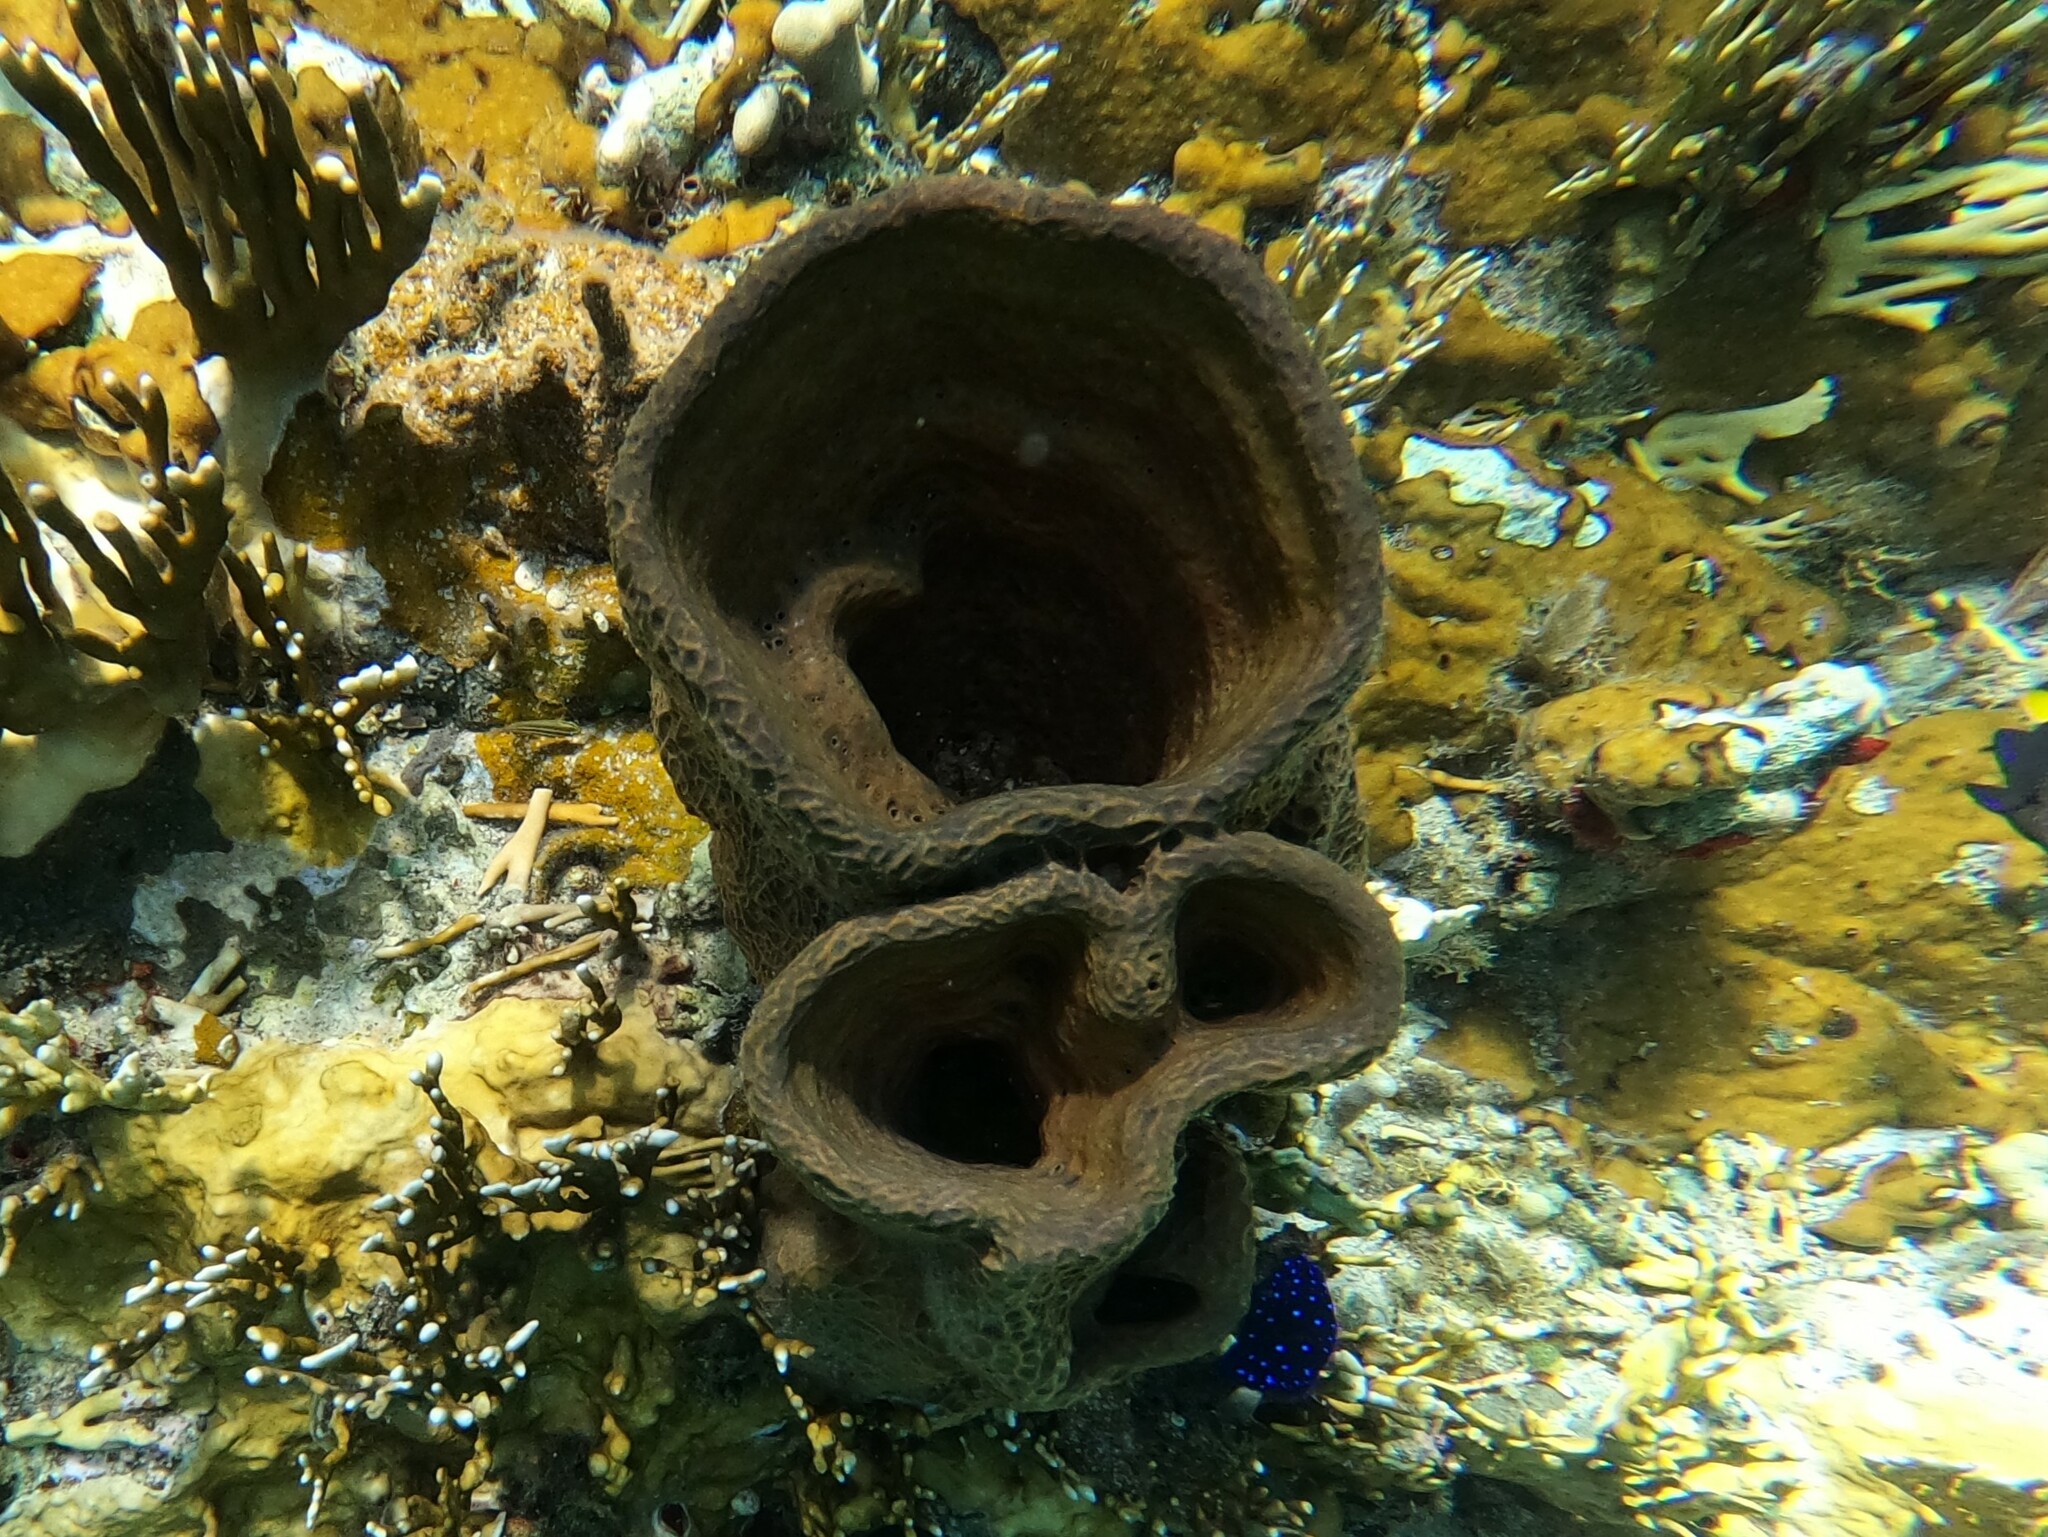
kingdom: Animalia
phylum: Porifera
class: Demospongiae
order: Verongiida
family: Aplysinidae
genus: Verongula
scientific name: Verongula gigantea
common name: Netted barrel sponge
